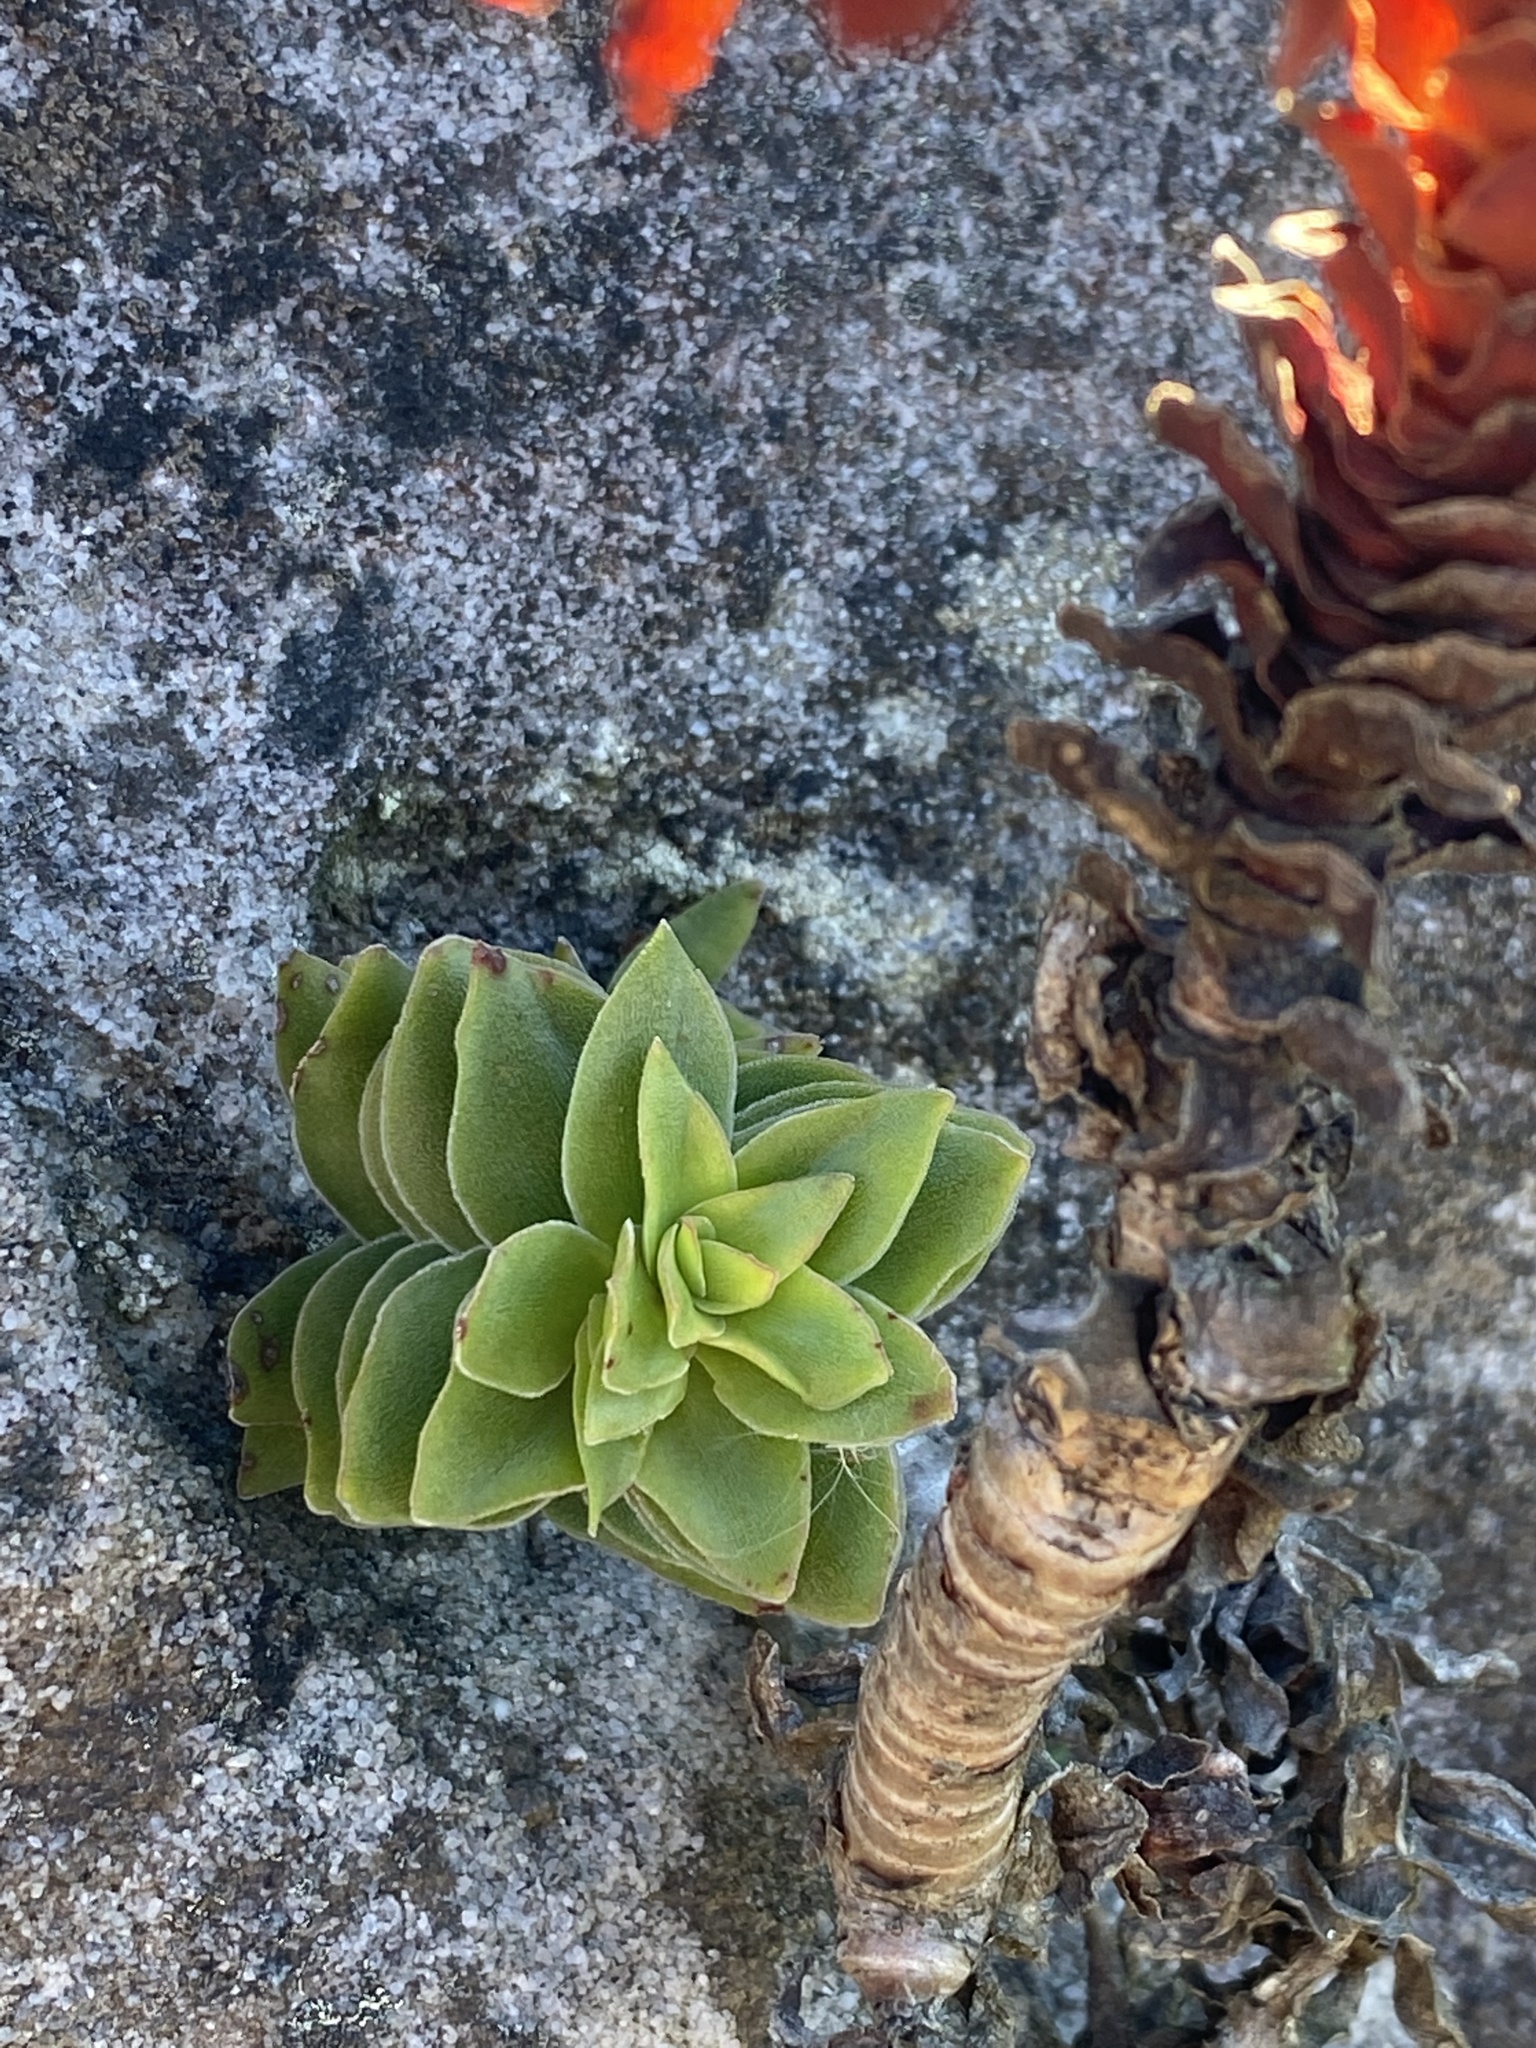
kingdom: Plantae
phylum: Tracheophyta
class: Magnoliopsida
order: Saxifragales
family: Crassulaceae
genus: Crassula
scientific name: Crassula coccinea
